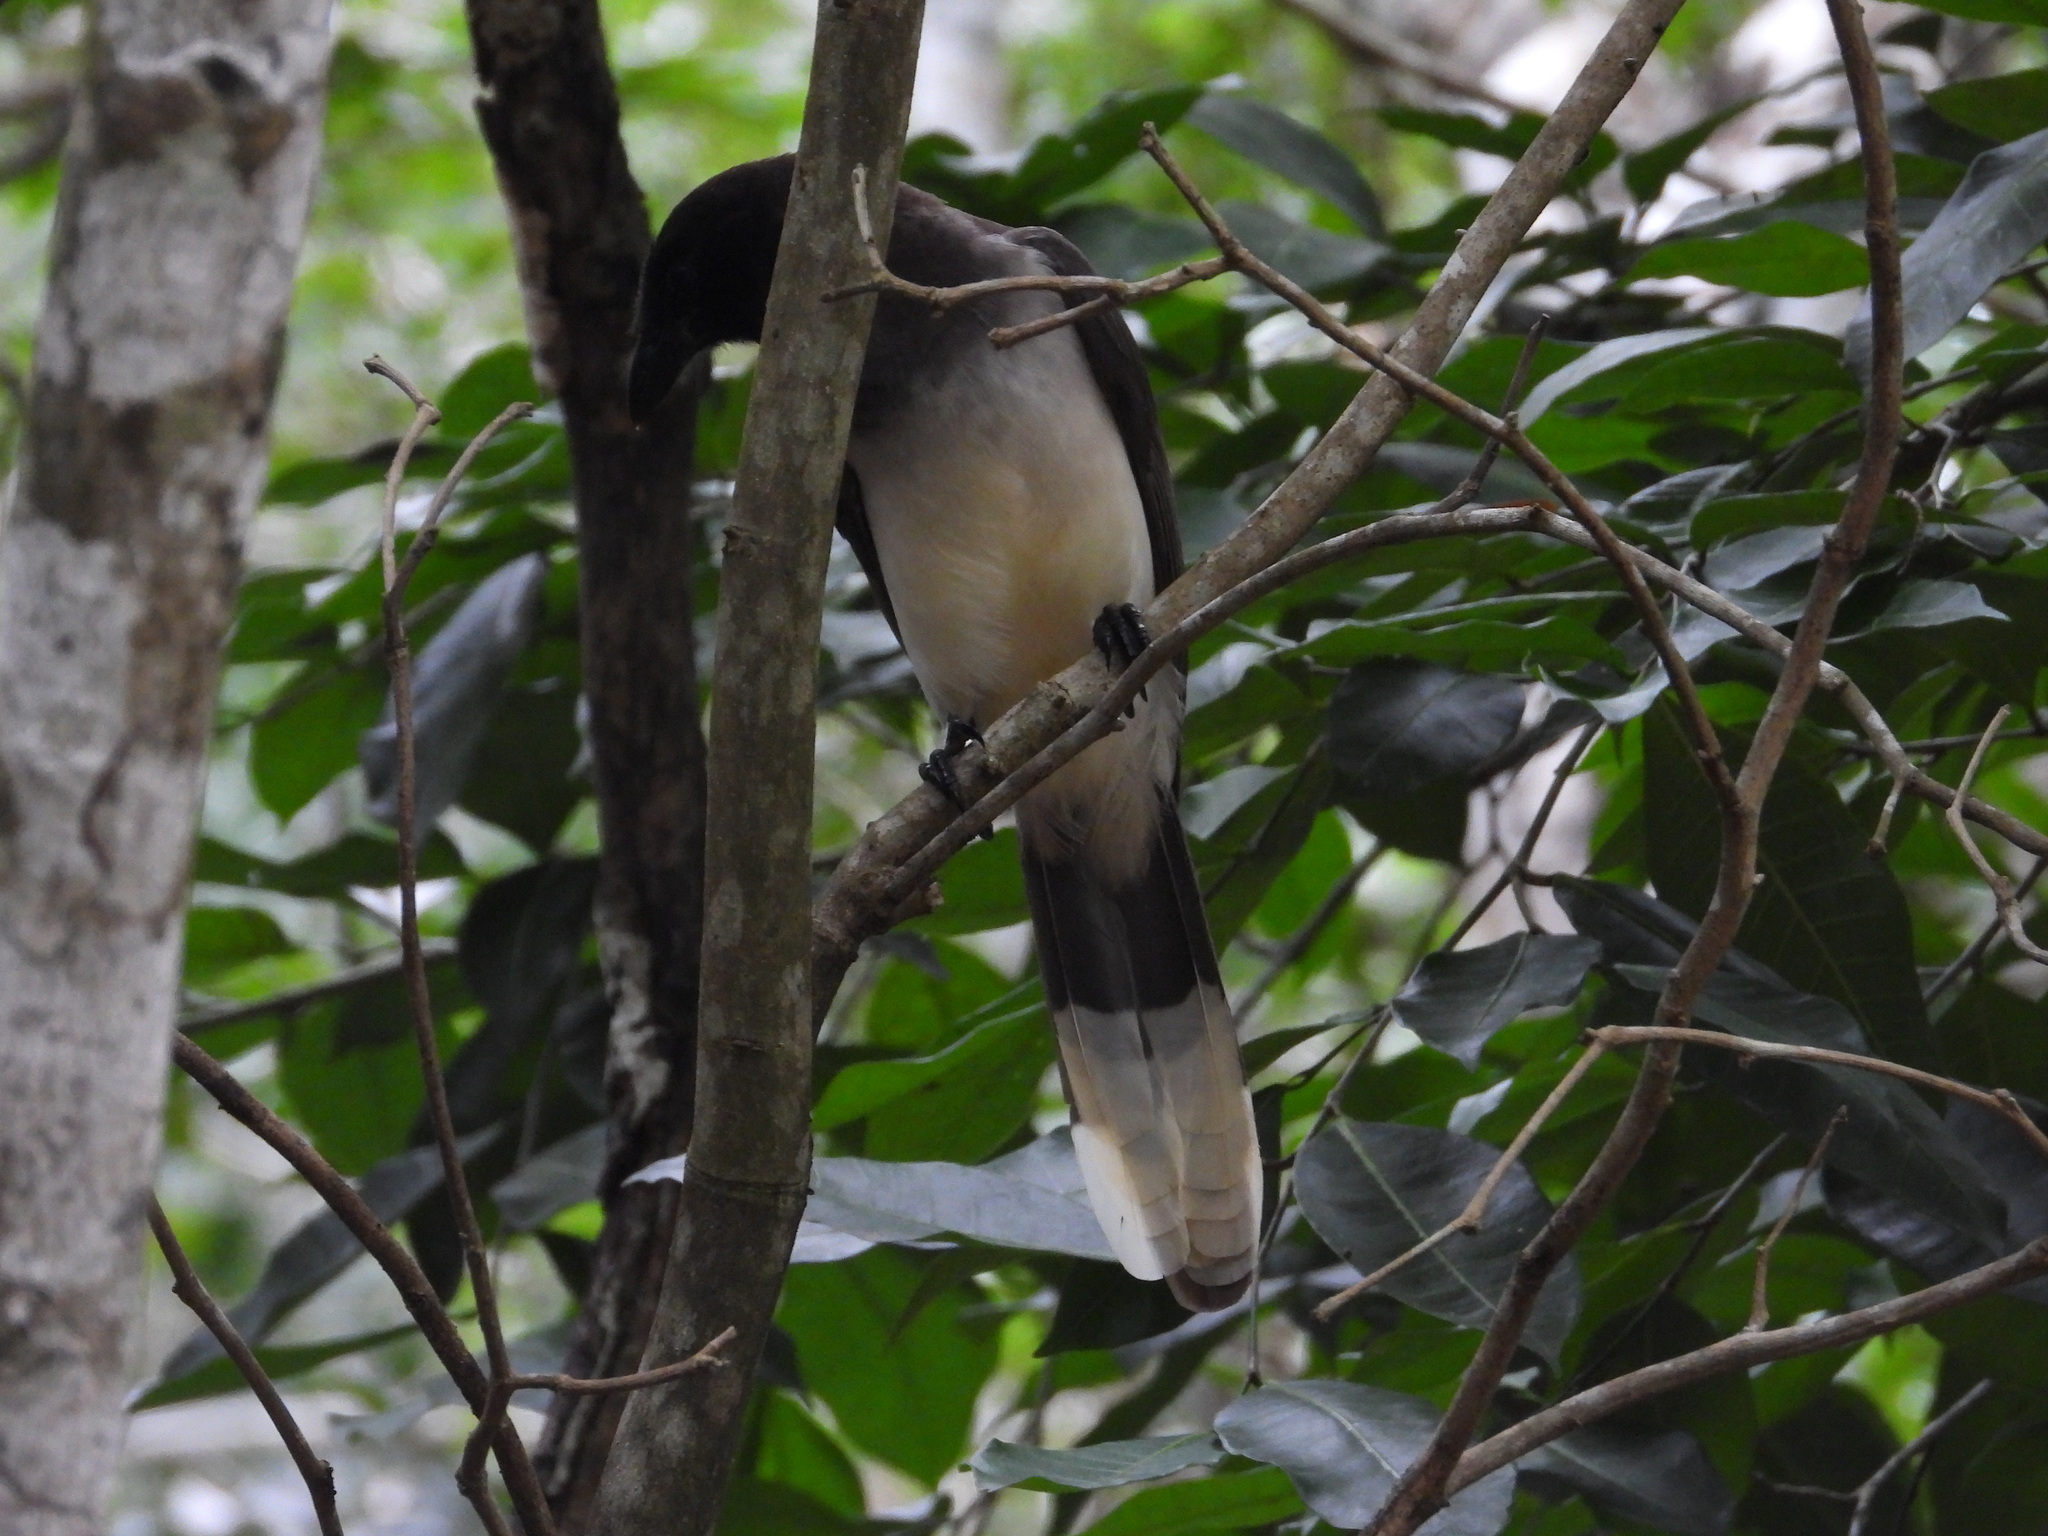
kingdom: Animalia
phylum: Chordata
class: Aves
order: Passeriformes
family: Corvidae
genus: Psilorhinus
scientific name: Psilorhinus morio
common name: Brown jay
